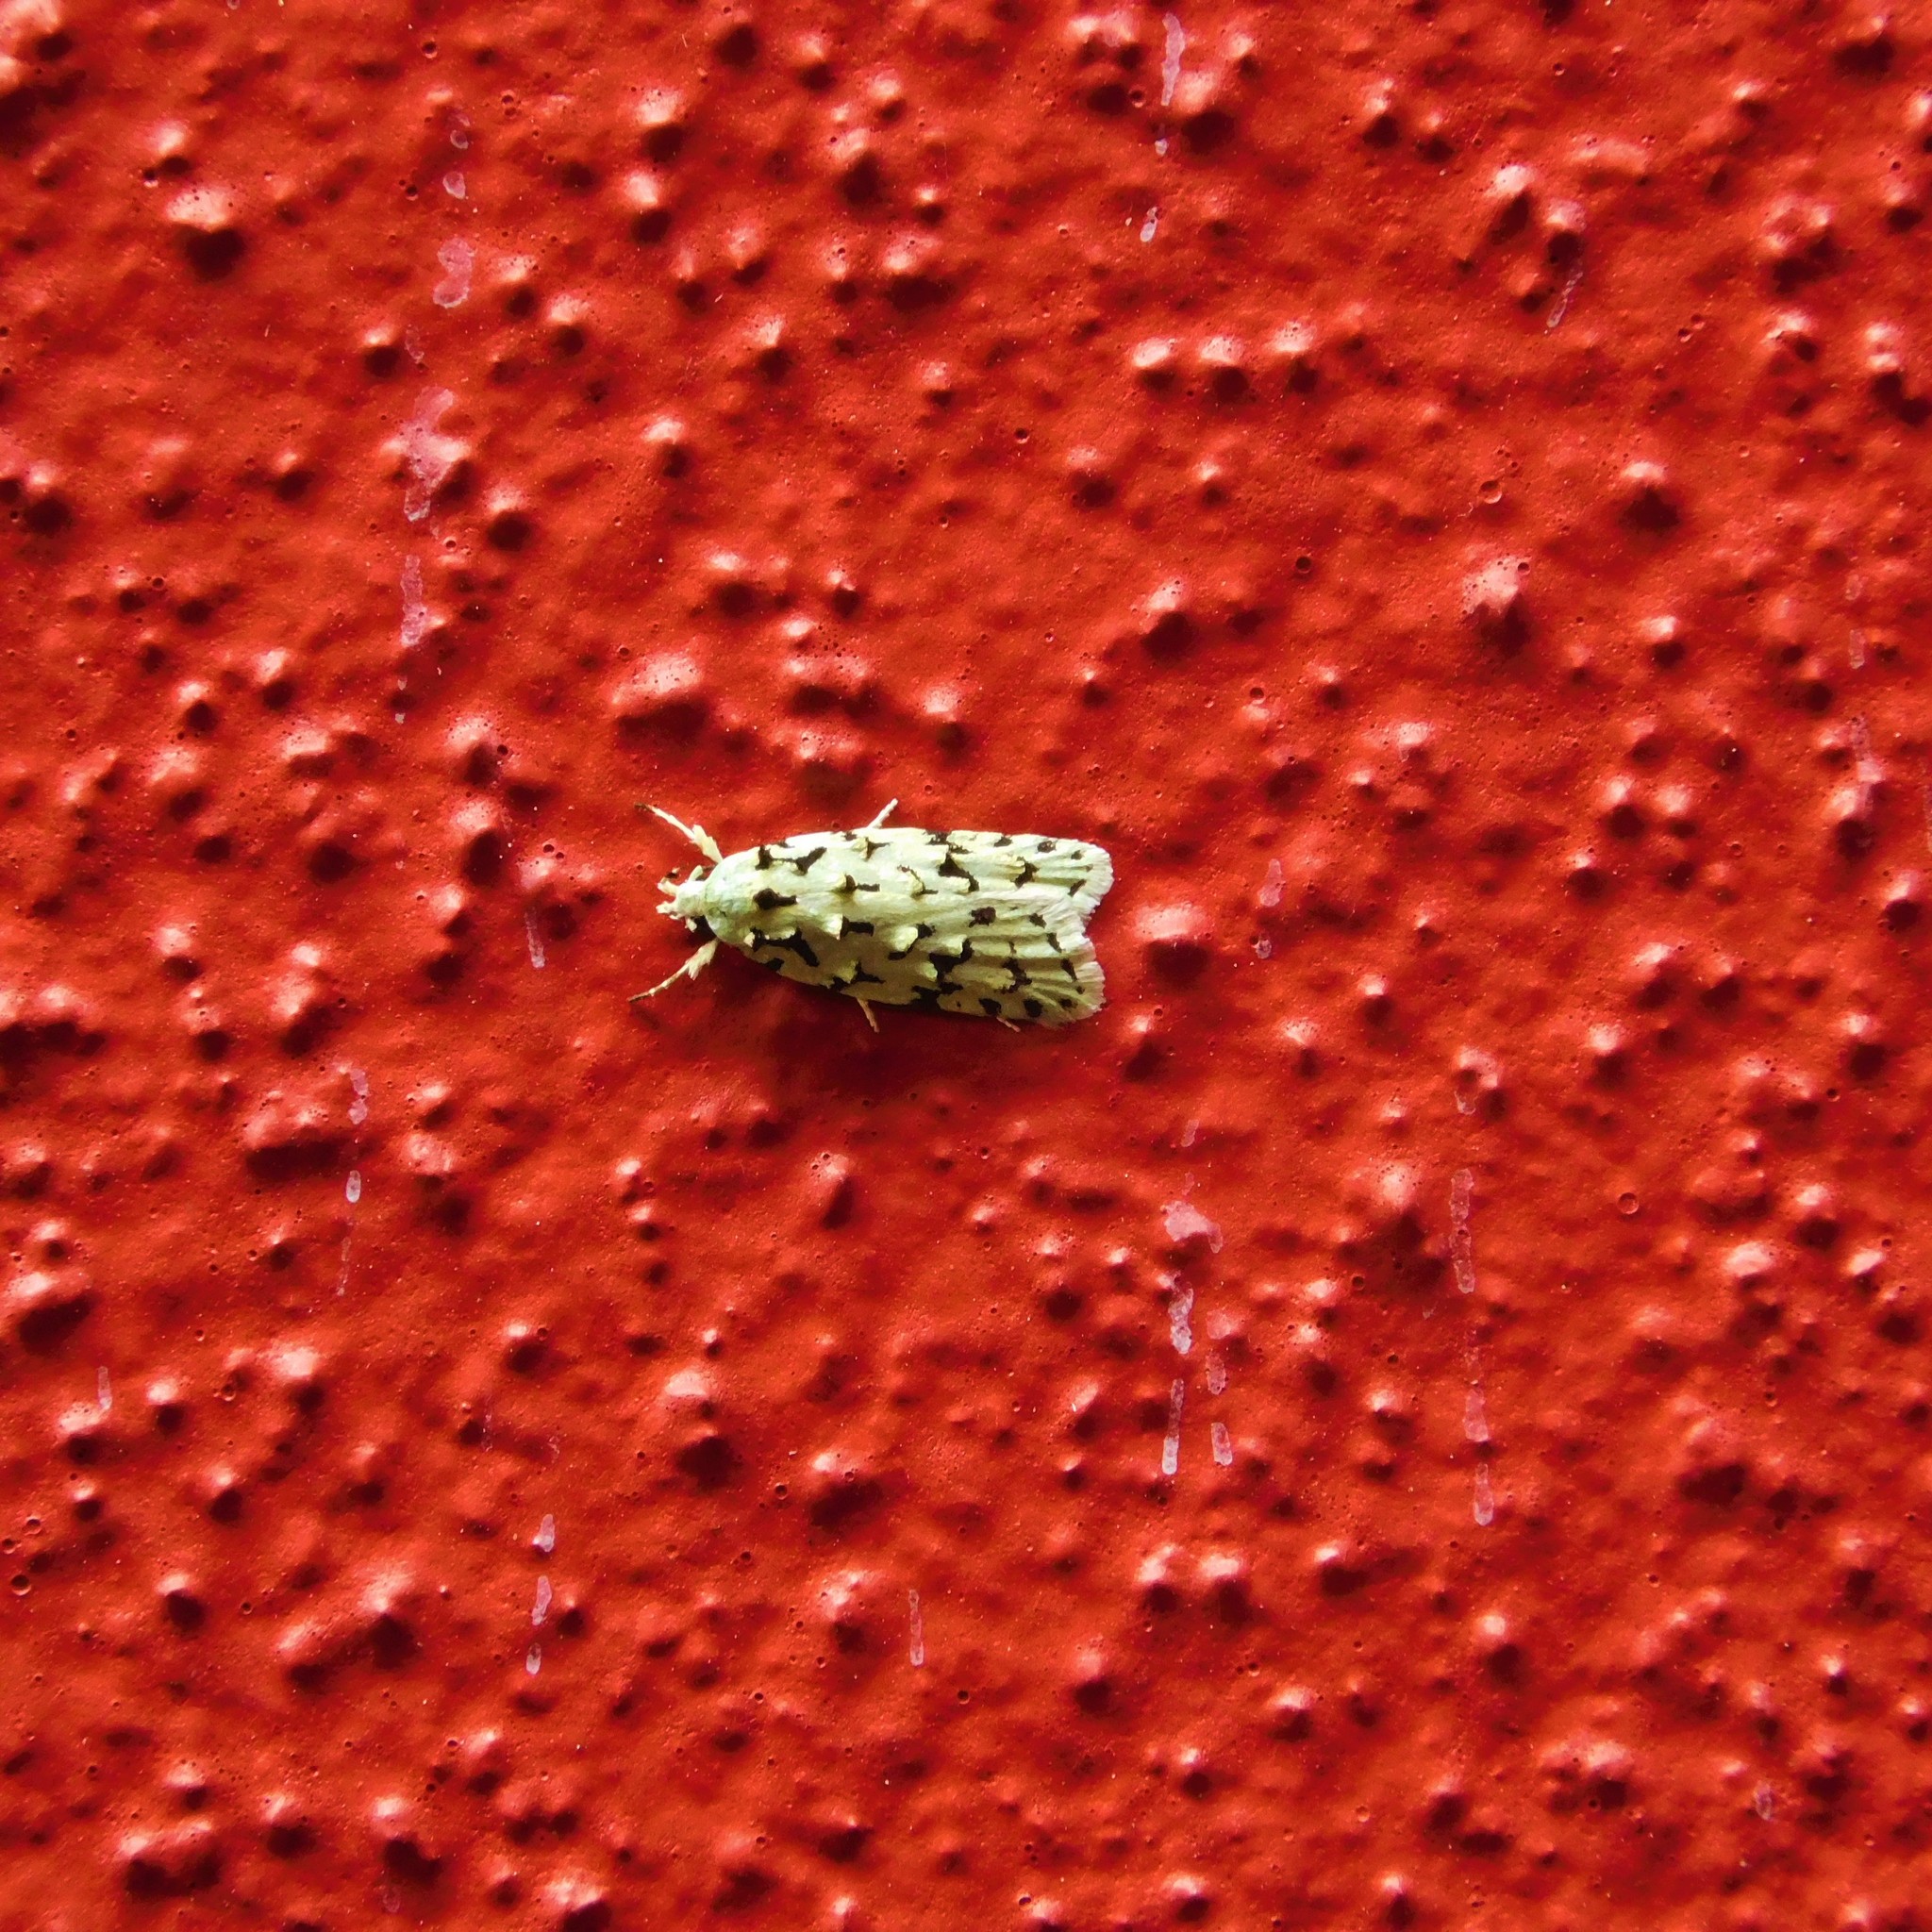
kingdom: Animalia
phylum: Arthropoda
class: Insecta
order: Lepidoptera
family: Oecophoridae
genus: Izatha
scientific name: Izatha peroneanella
